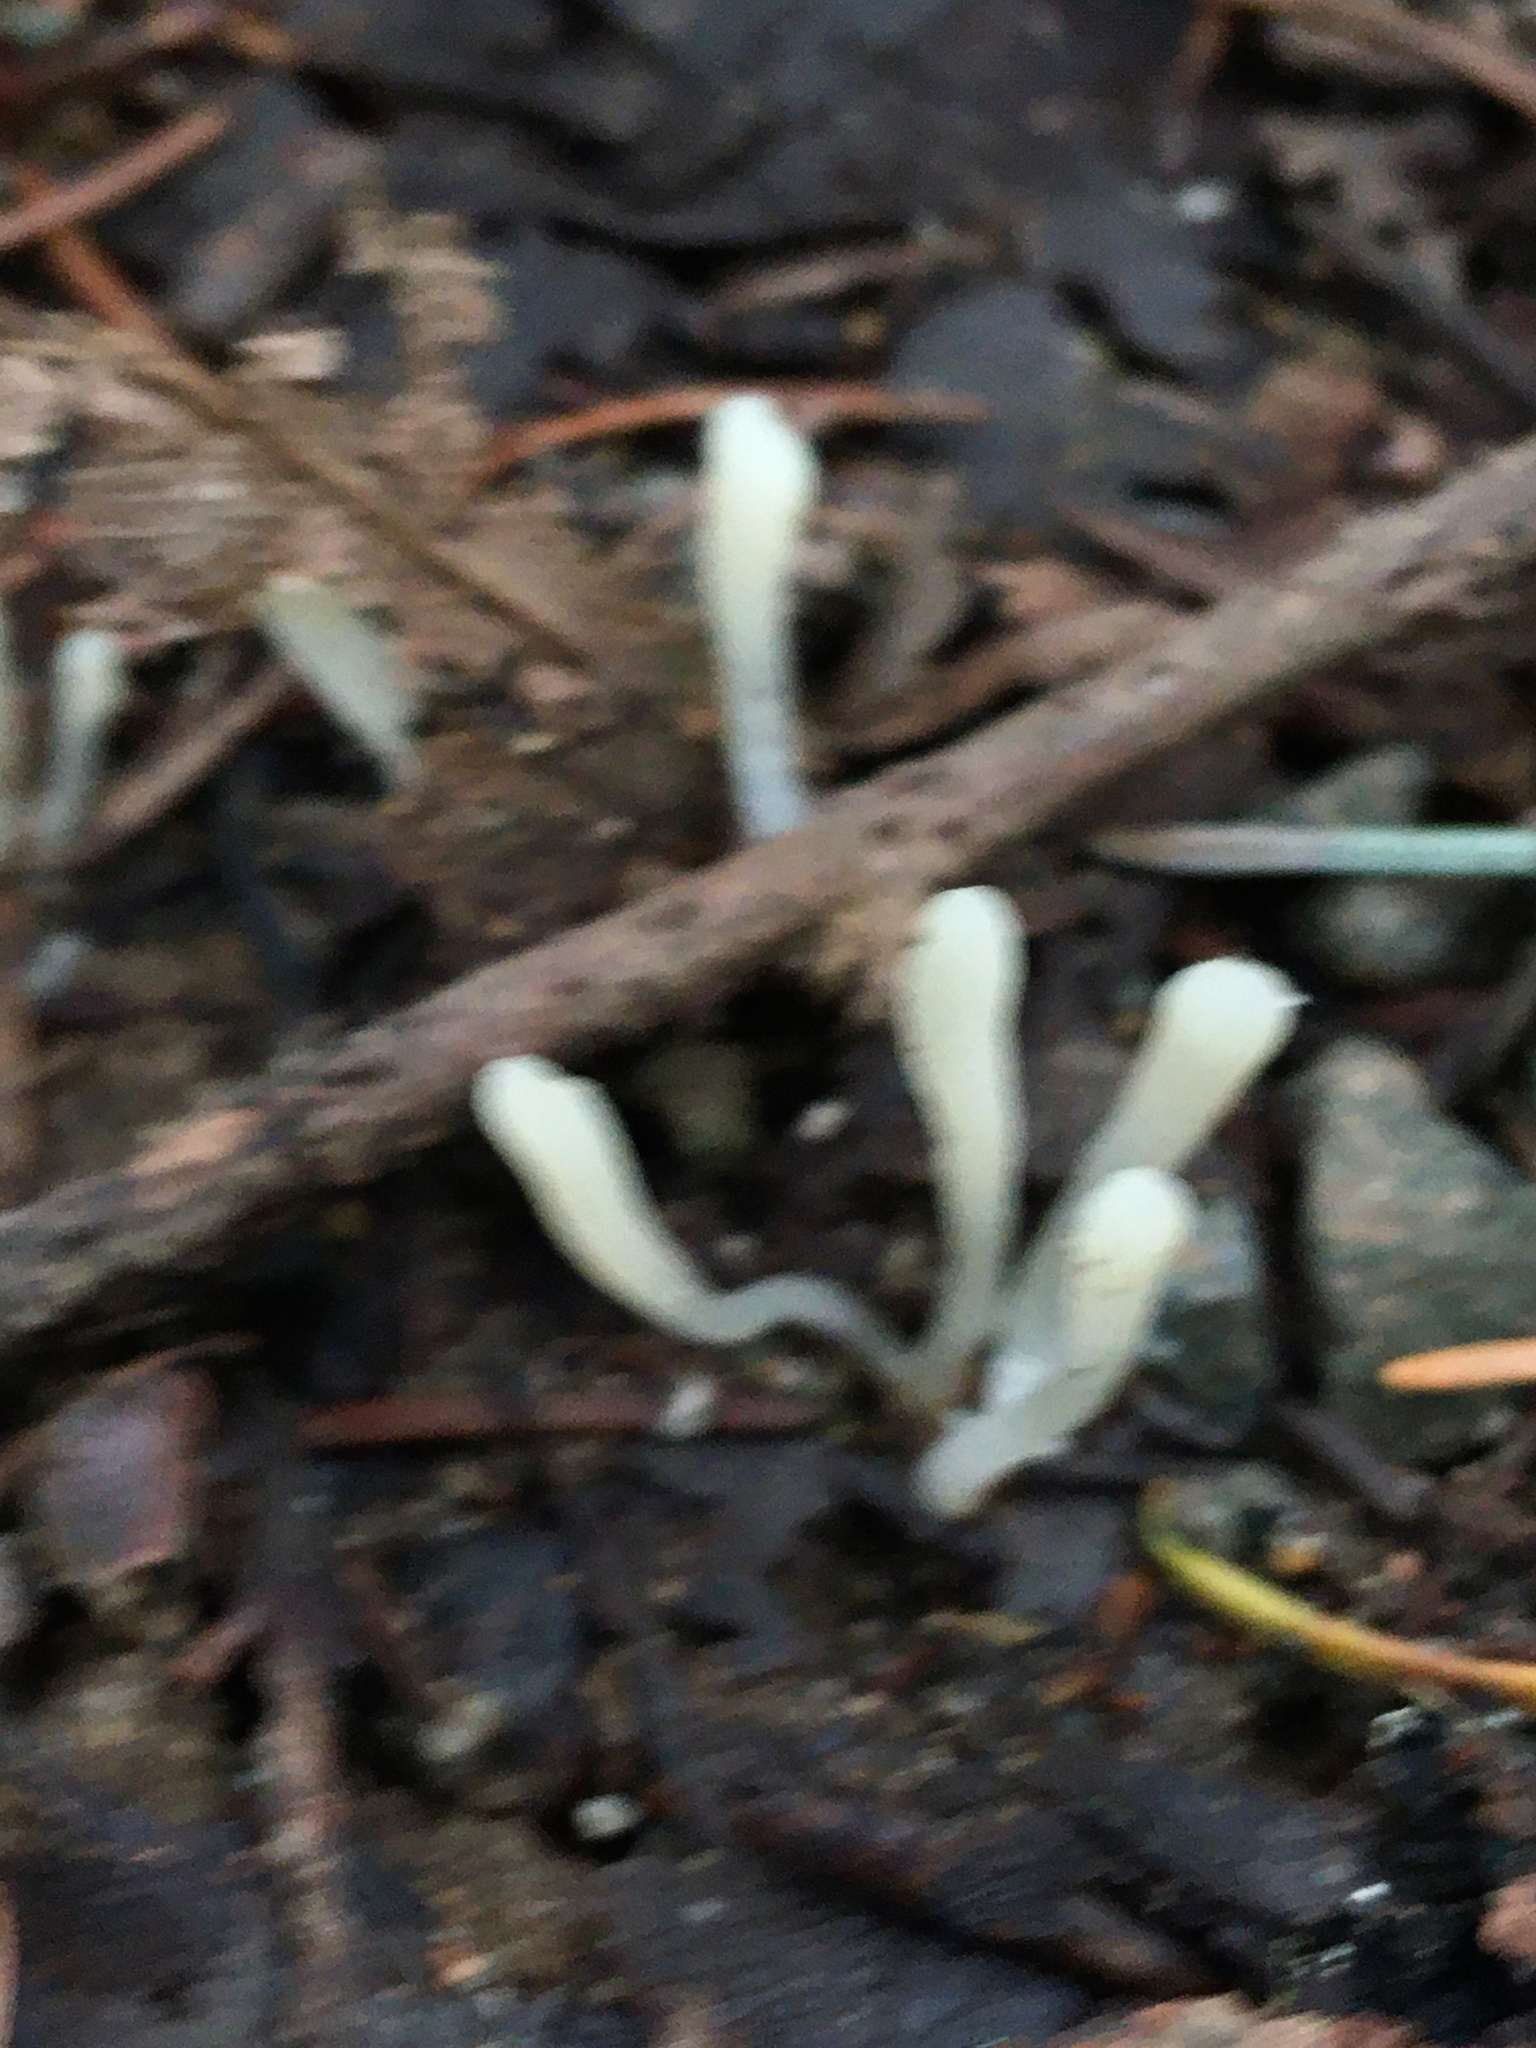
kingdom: Fungi
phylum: Basidiomycota
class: Agaricomycetes
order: Agaricales
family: Clavariaceae
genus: Clavaria
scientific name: Clavaria fragilis
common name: White spindles
